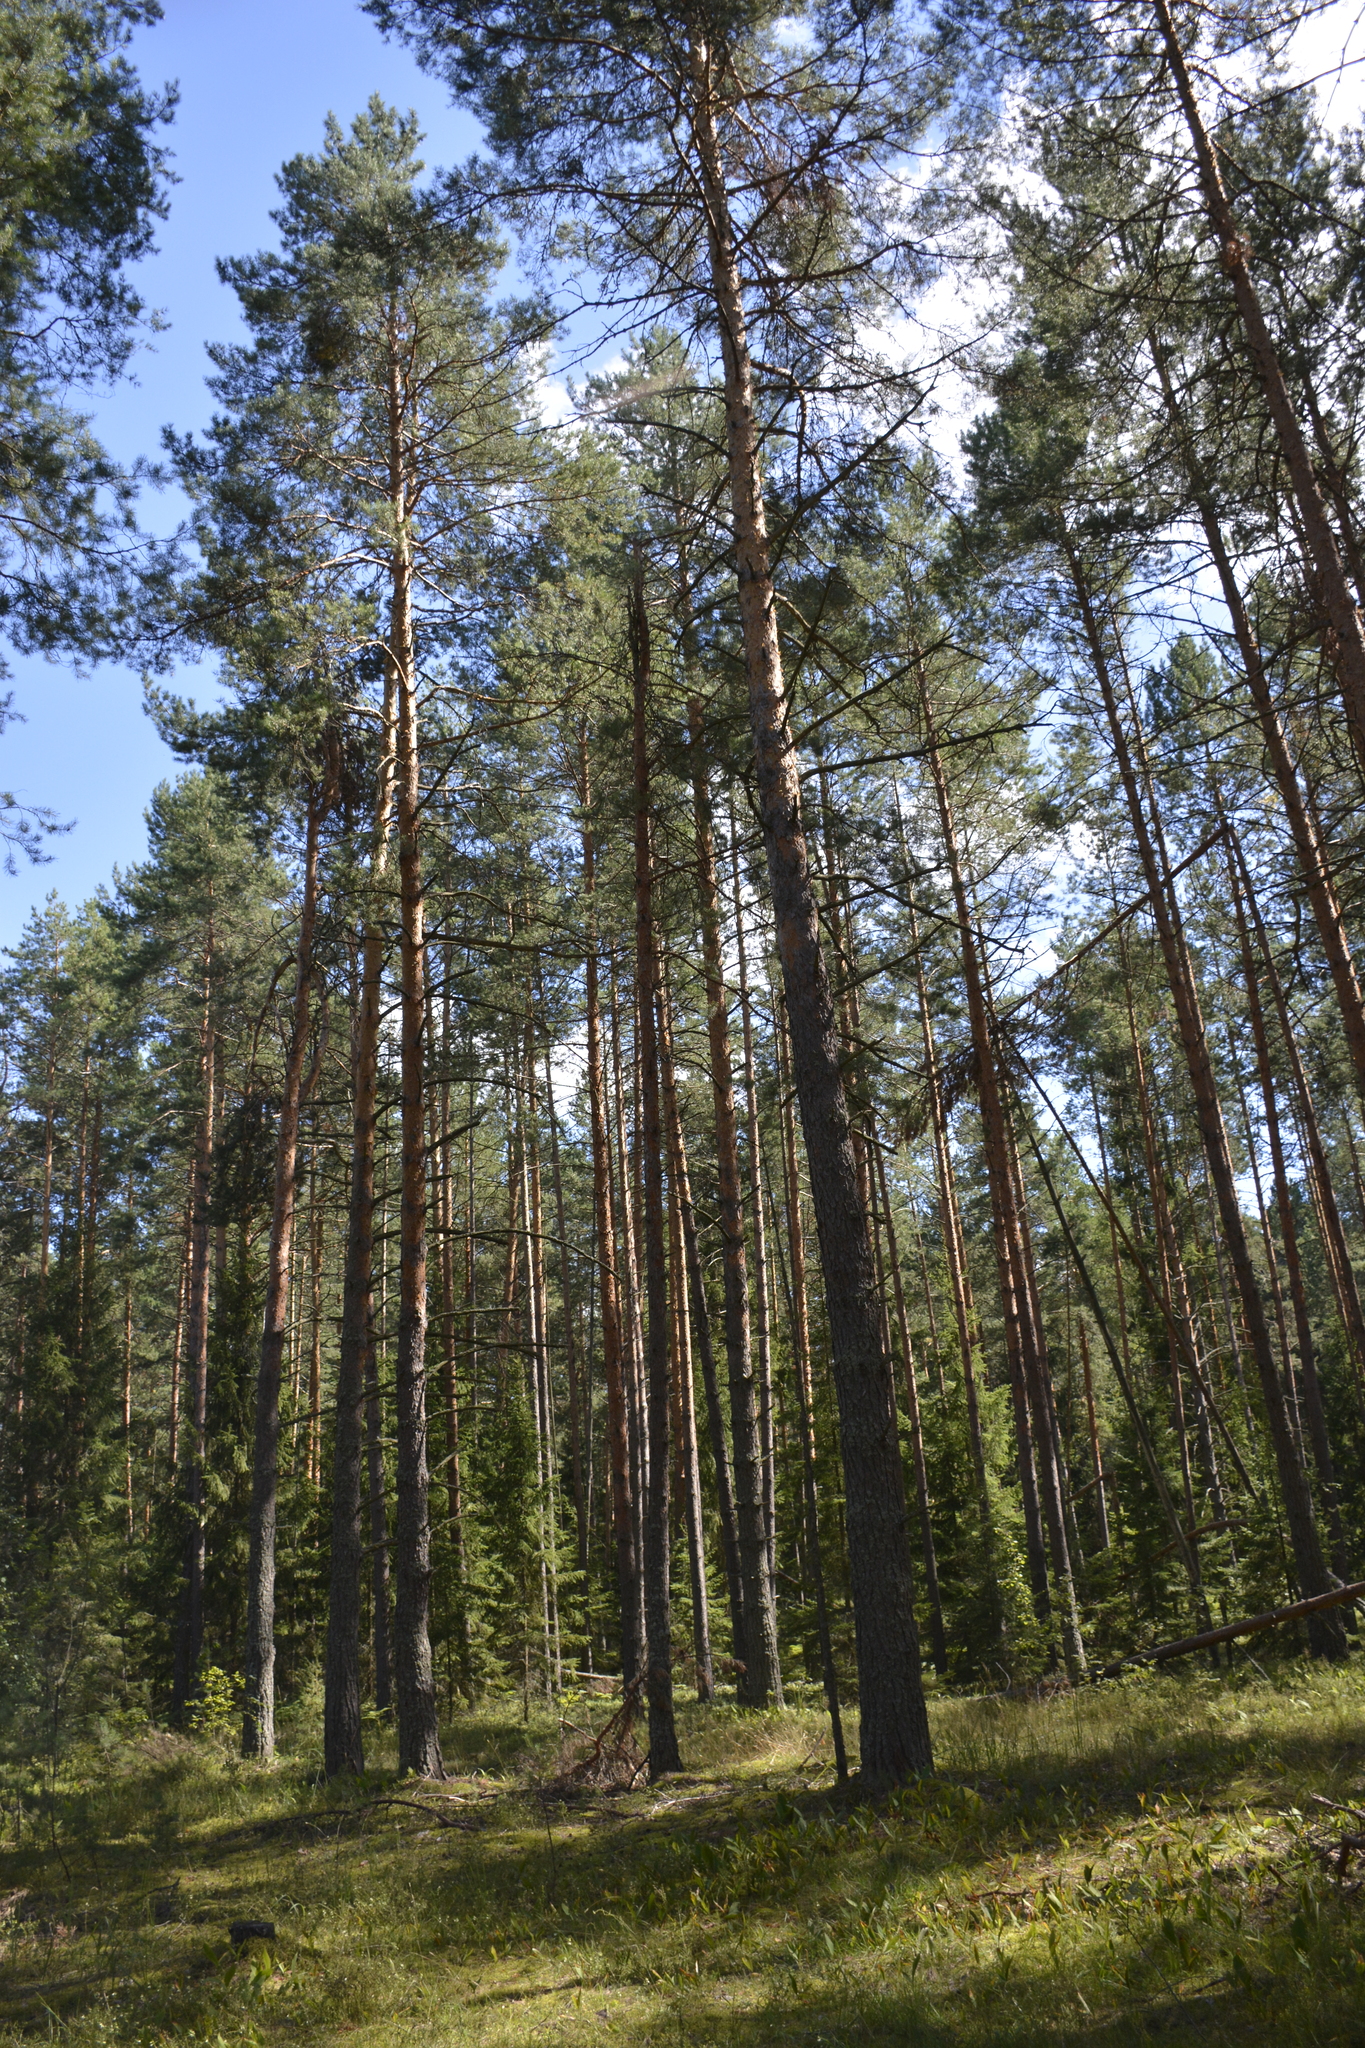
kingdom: Plantae
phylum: Tracheophyta
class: Pinopsida
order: Pinales
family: Pinaceae
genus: Pinus
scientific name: Pinus sylvestris
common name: Scots pine
